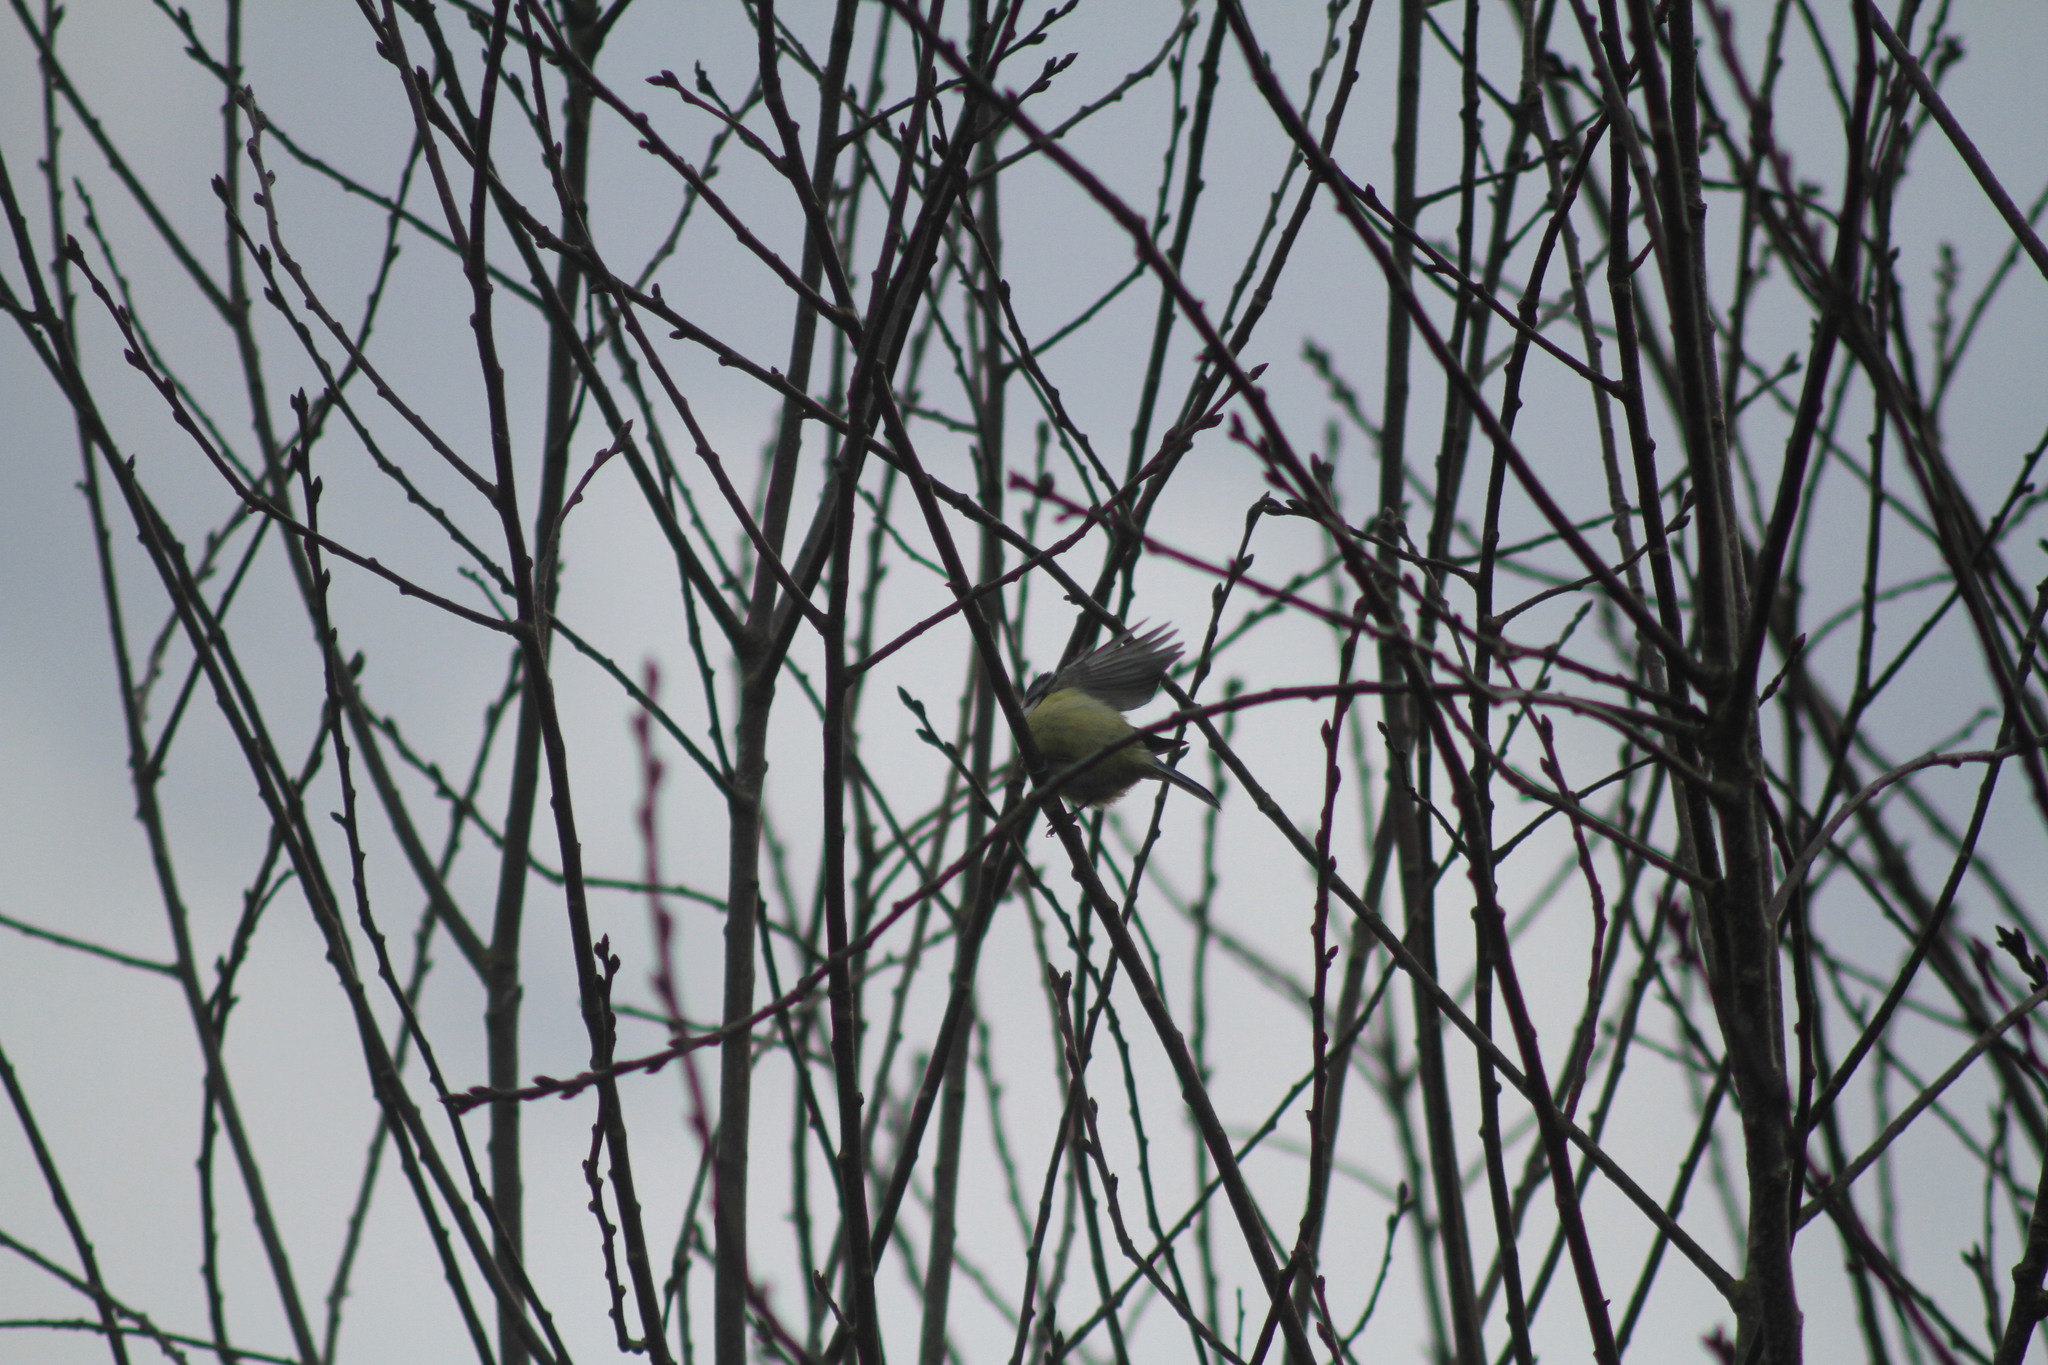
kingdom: Animalia
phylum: Chordata
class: Aves
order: Passeriformes
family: Paridae
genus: Cyanistes
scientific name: Cyanistes caeruleus
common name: Eurasian blue tit
